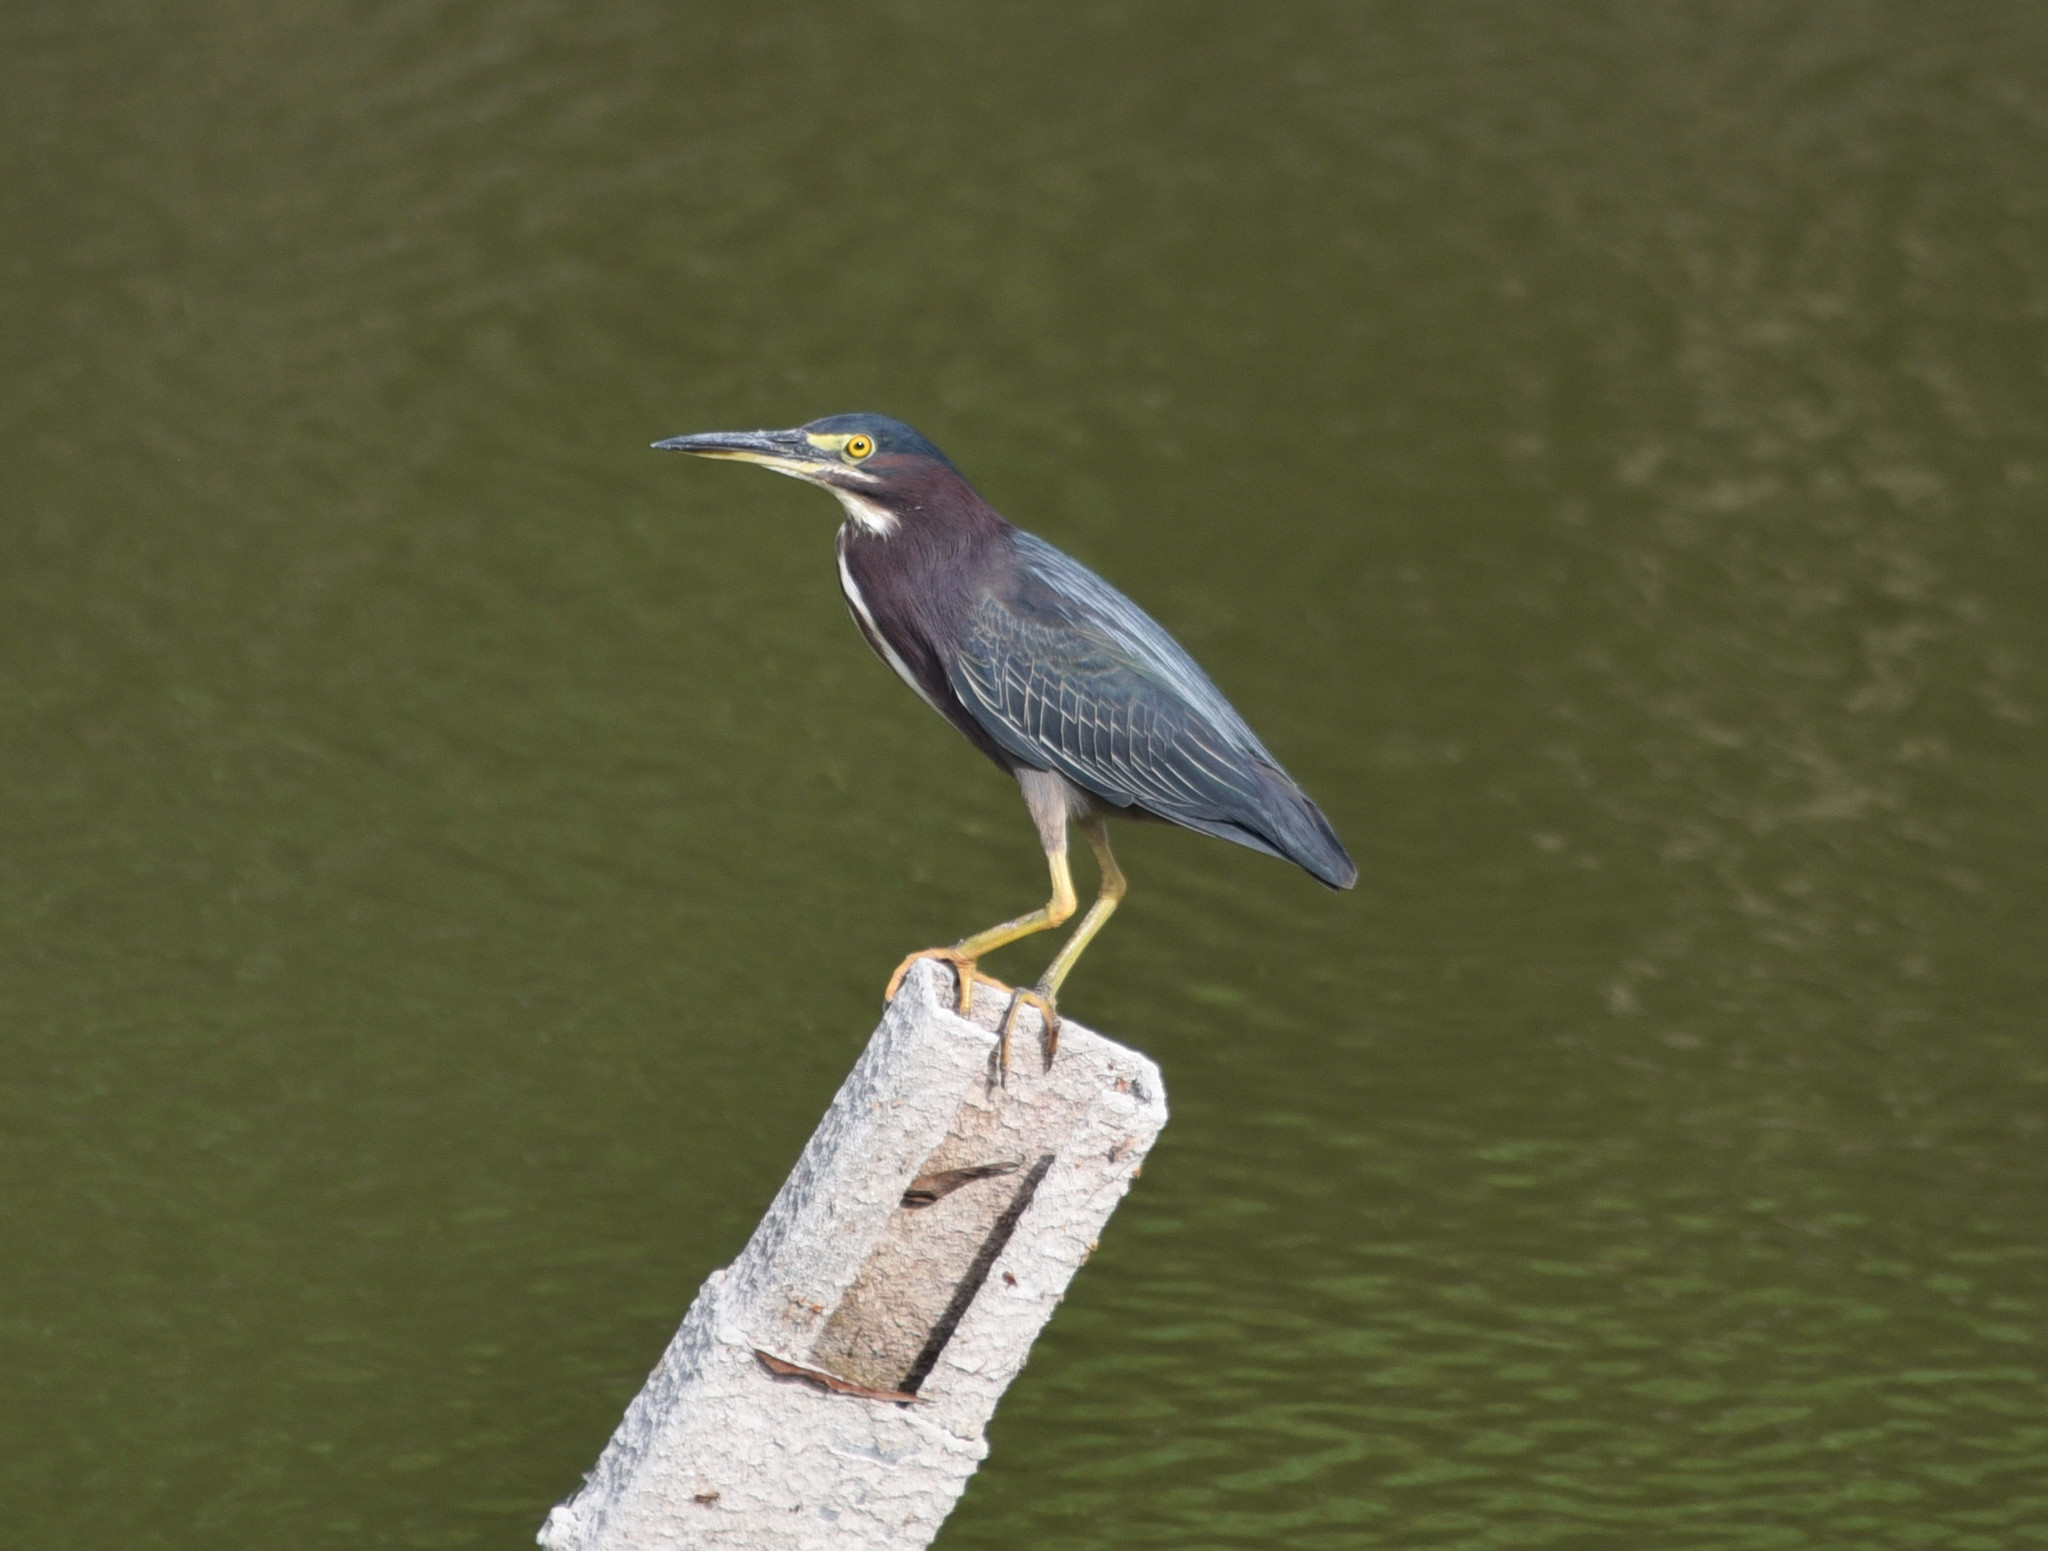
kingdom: Animalia
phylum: Chordata
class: Aves
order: Pelecaniformes
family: Ardeidae
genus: Butorides
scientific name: Butorides virescens
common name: Green heron
